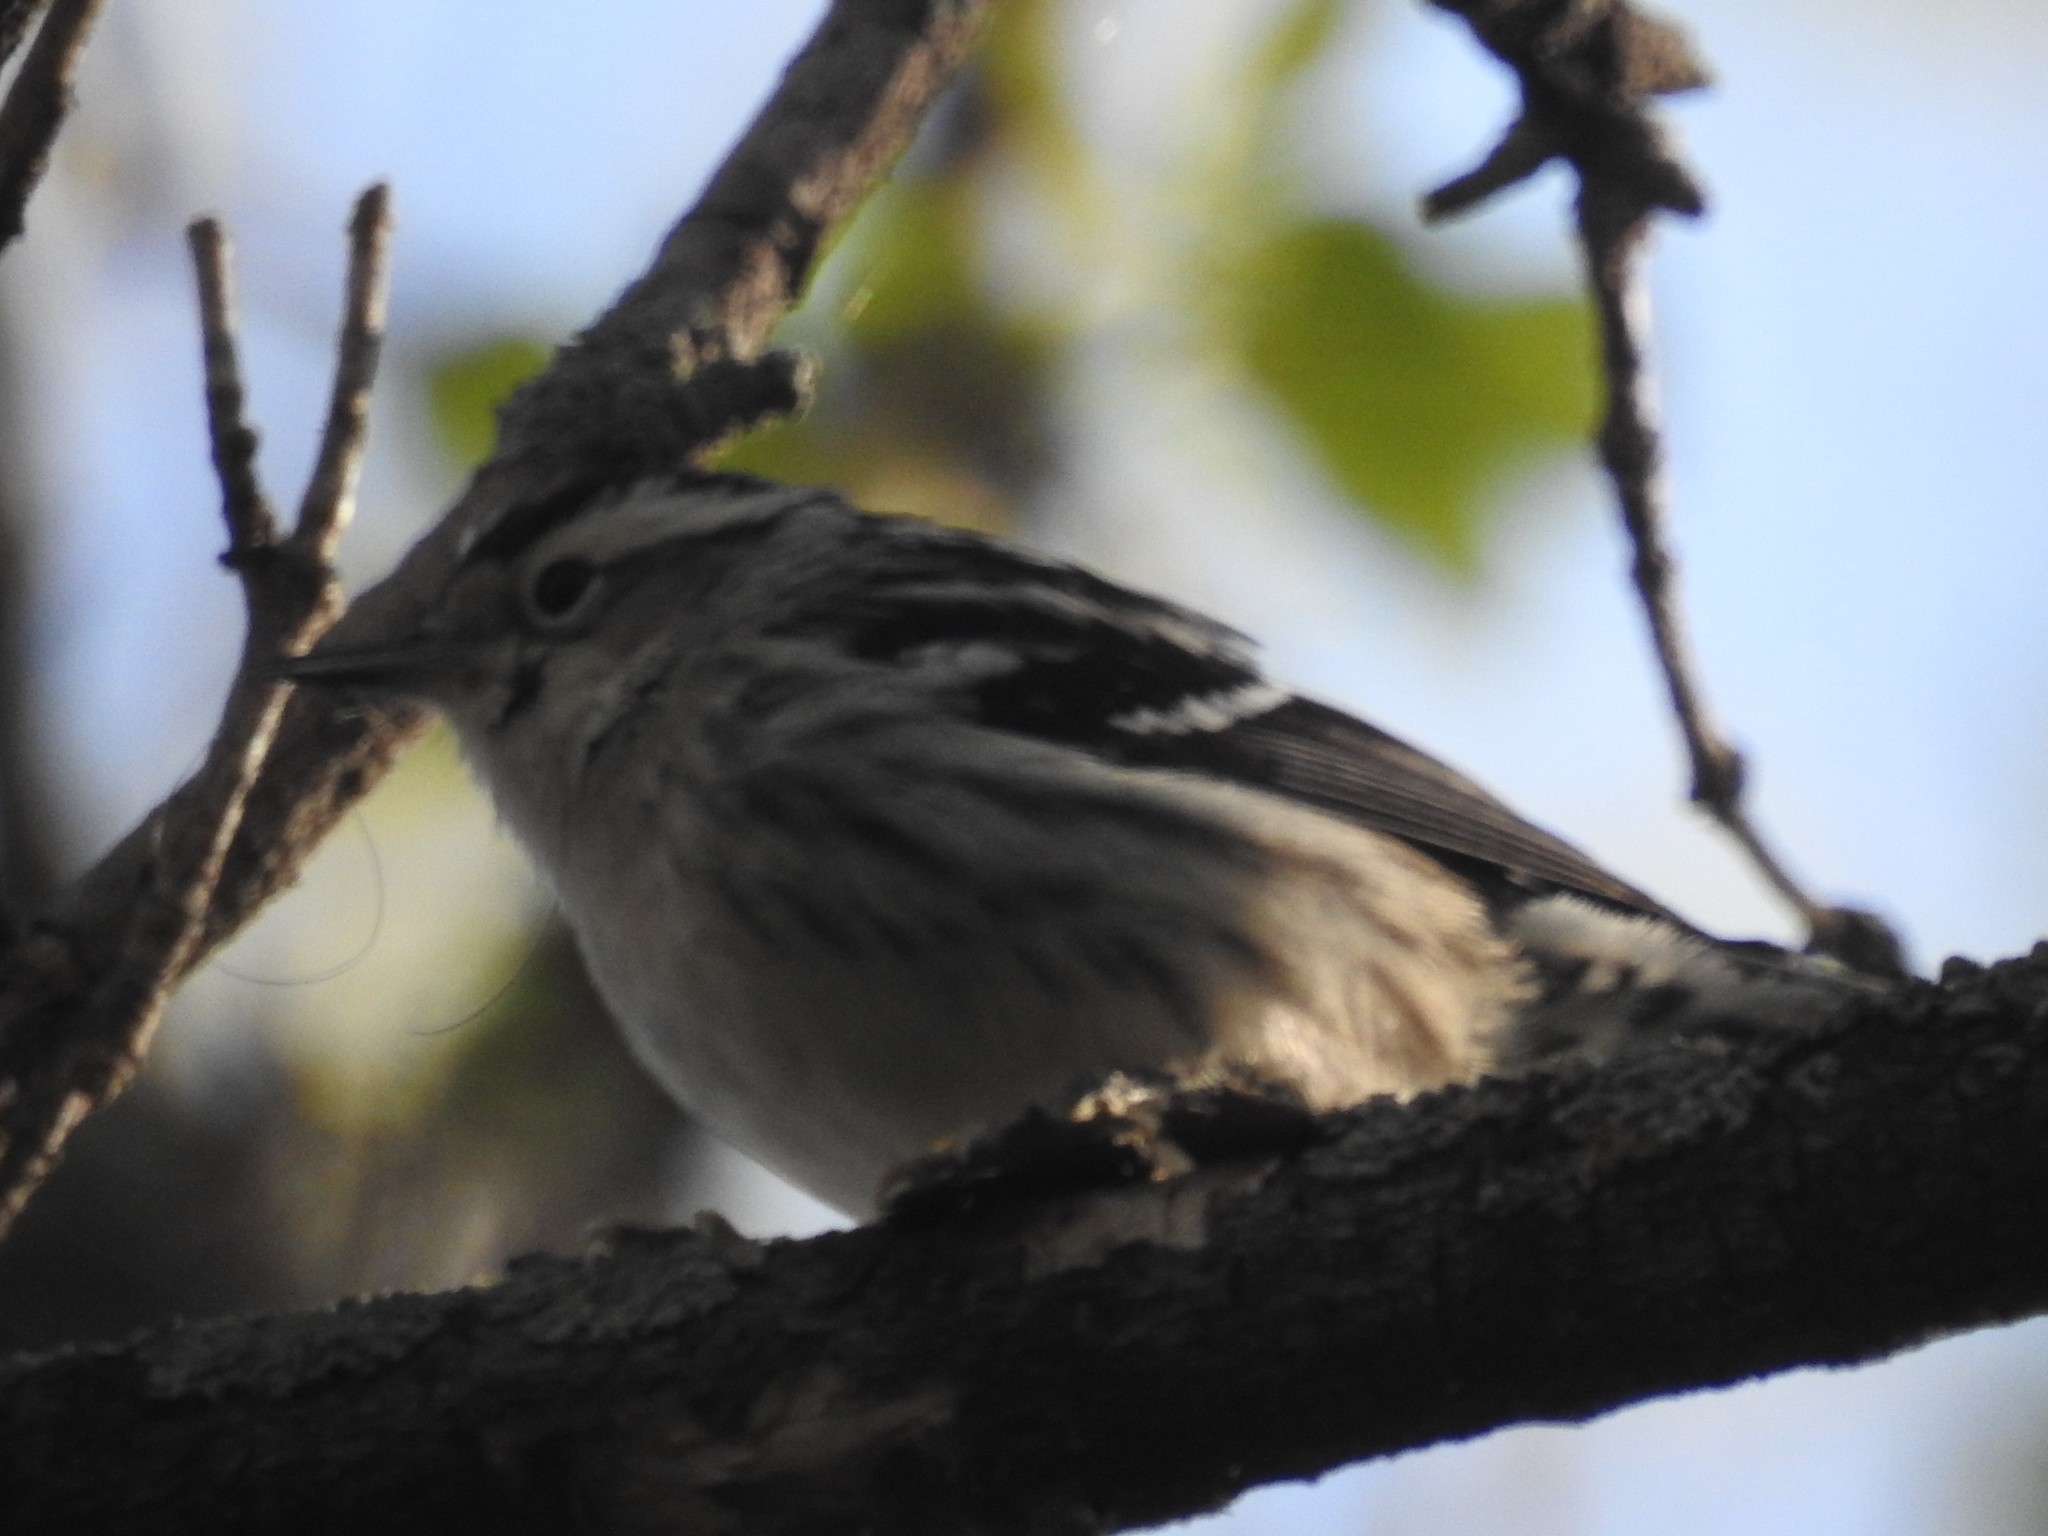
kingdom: Animalia
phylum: Chordata
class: Aves
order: Passeriformes
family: Parulidae
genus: Mniotilta
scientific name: Mniotilta varia
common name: Black-and-white warbler
